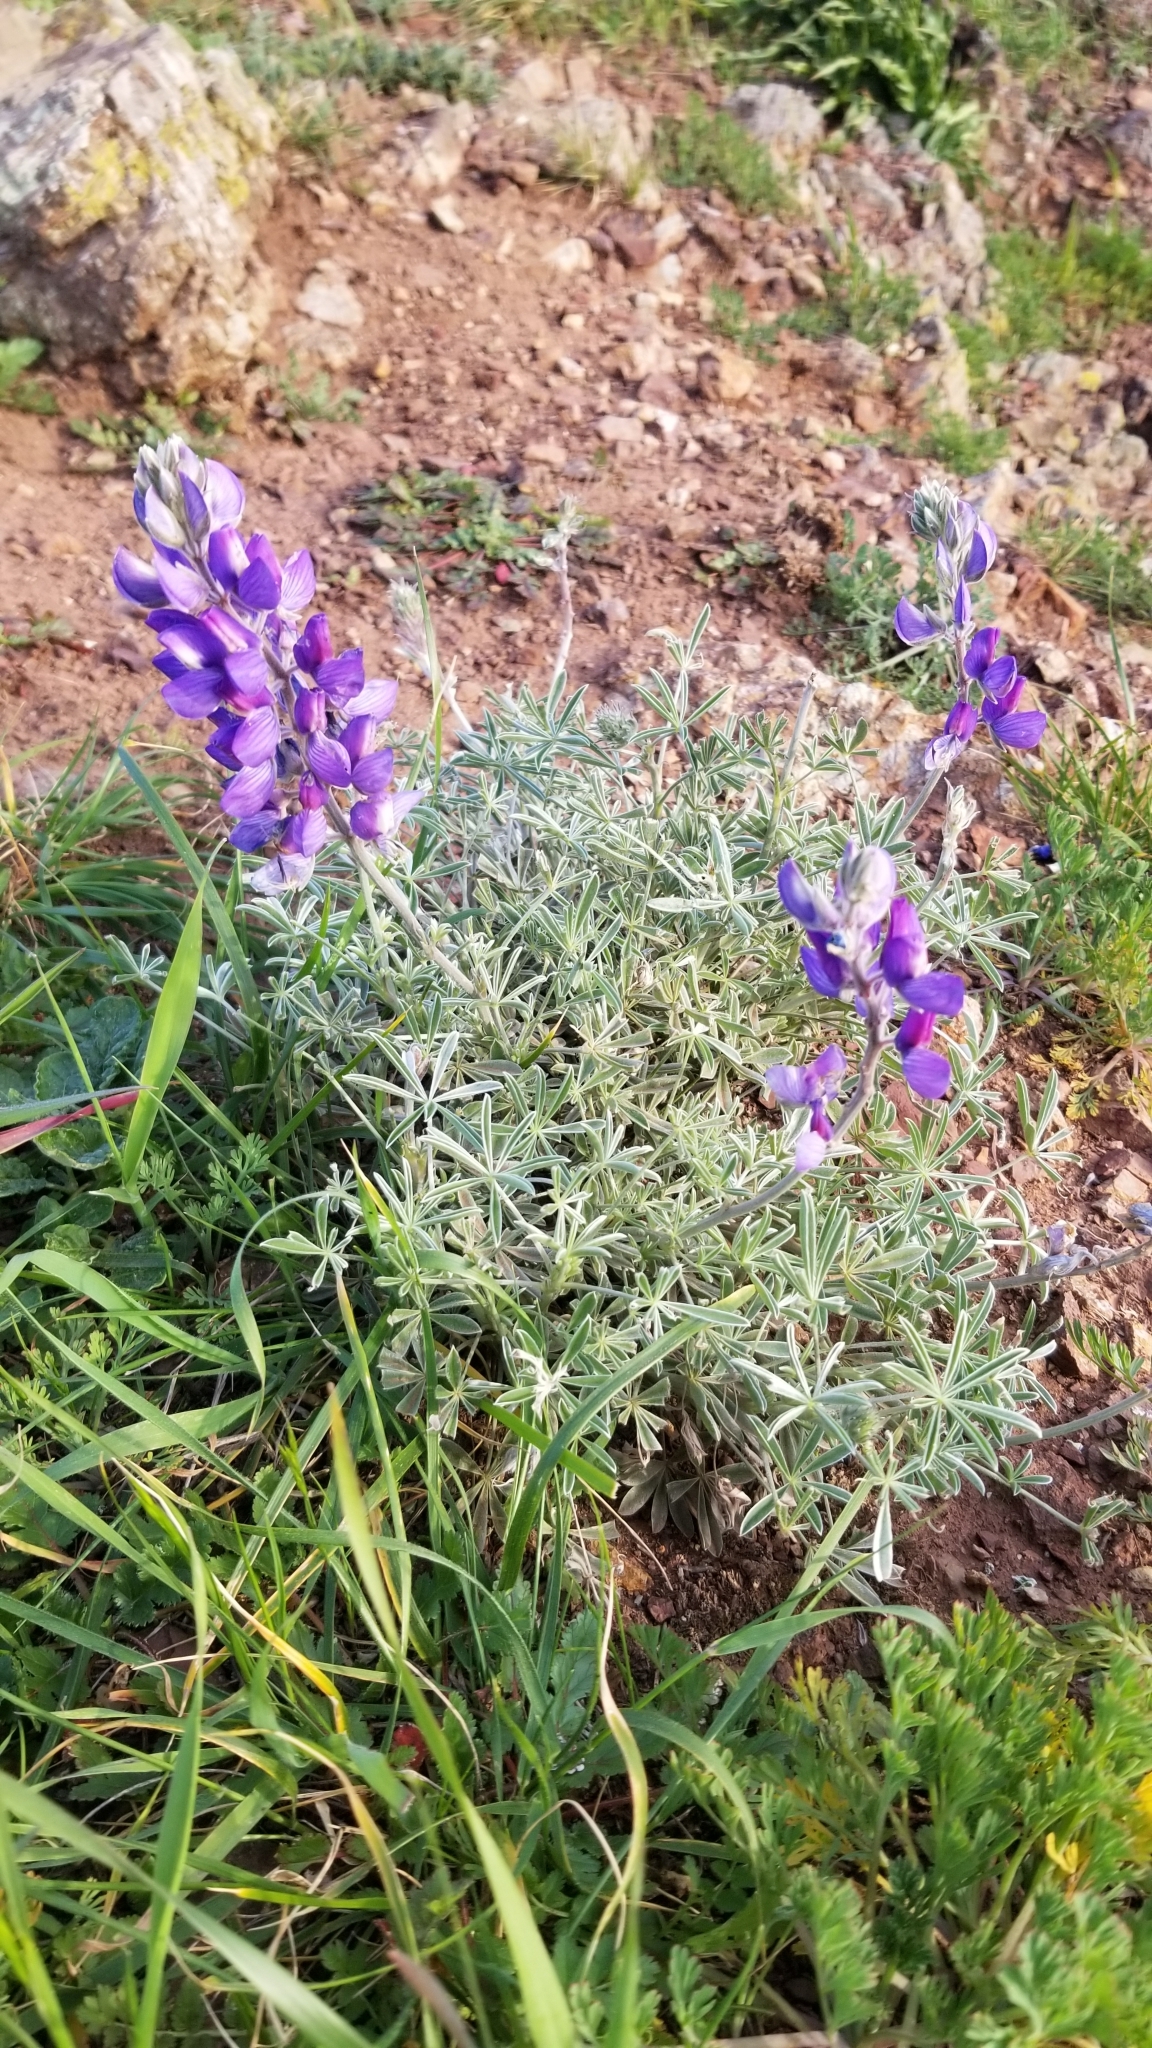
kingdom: Plantae
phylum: Tracheophyta
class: Magnoliopsida
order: Fabales
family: Fabaceae
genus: Lupinus
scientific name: Lupinus albifrons
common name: Foothill lupine
